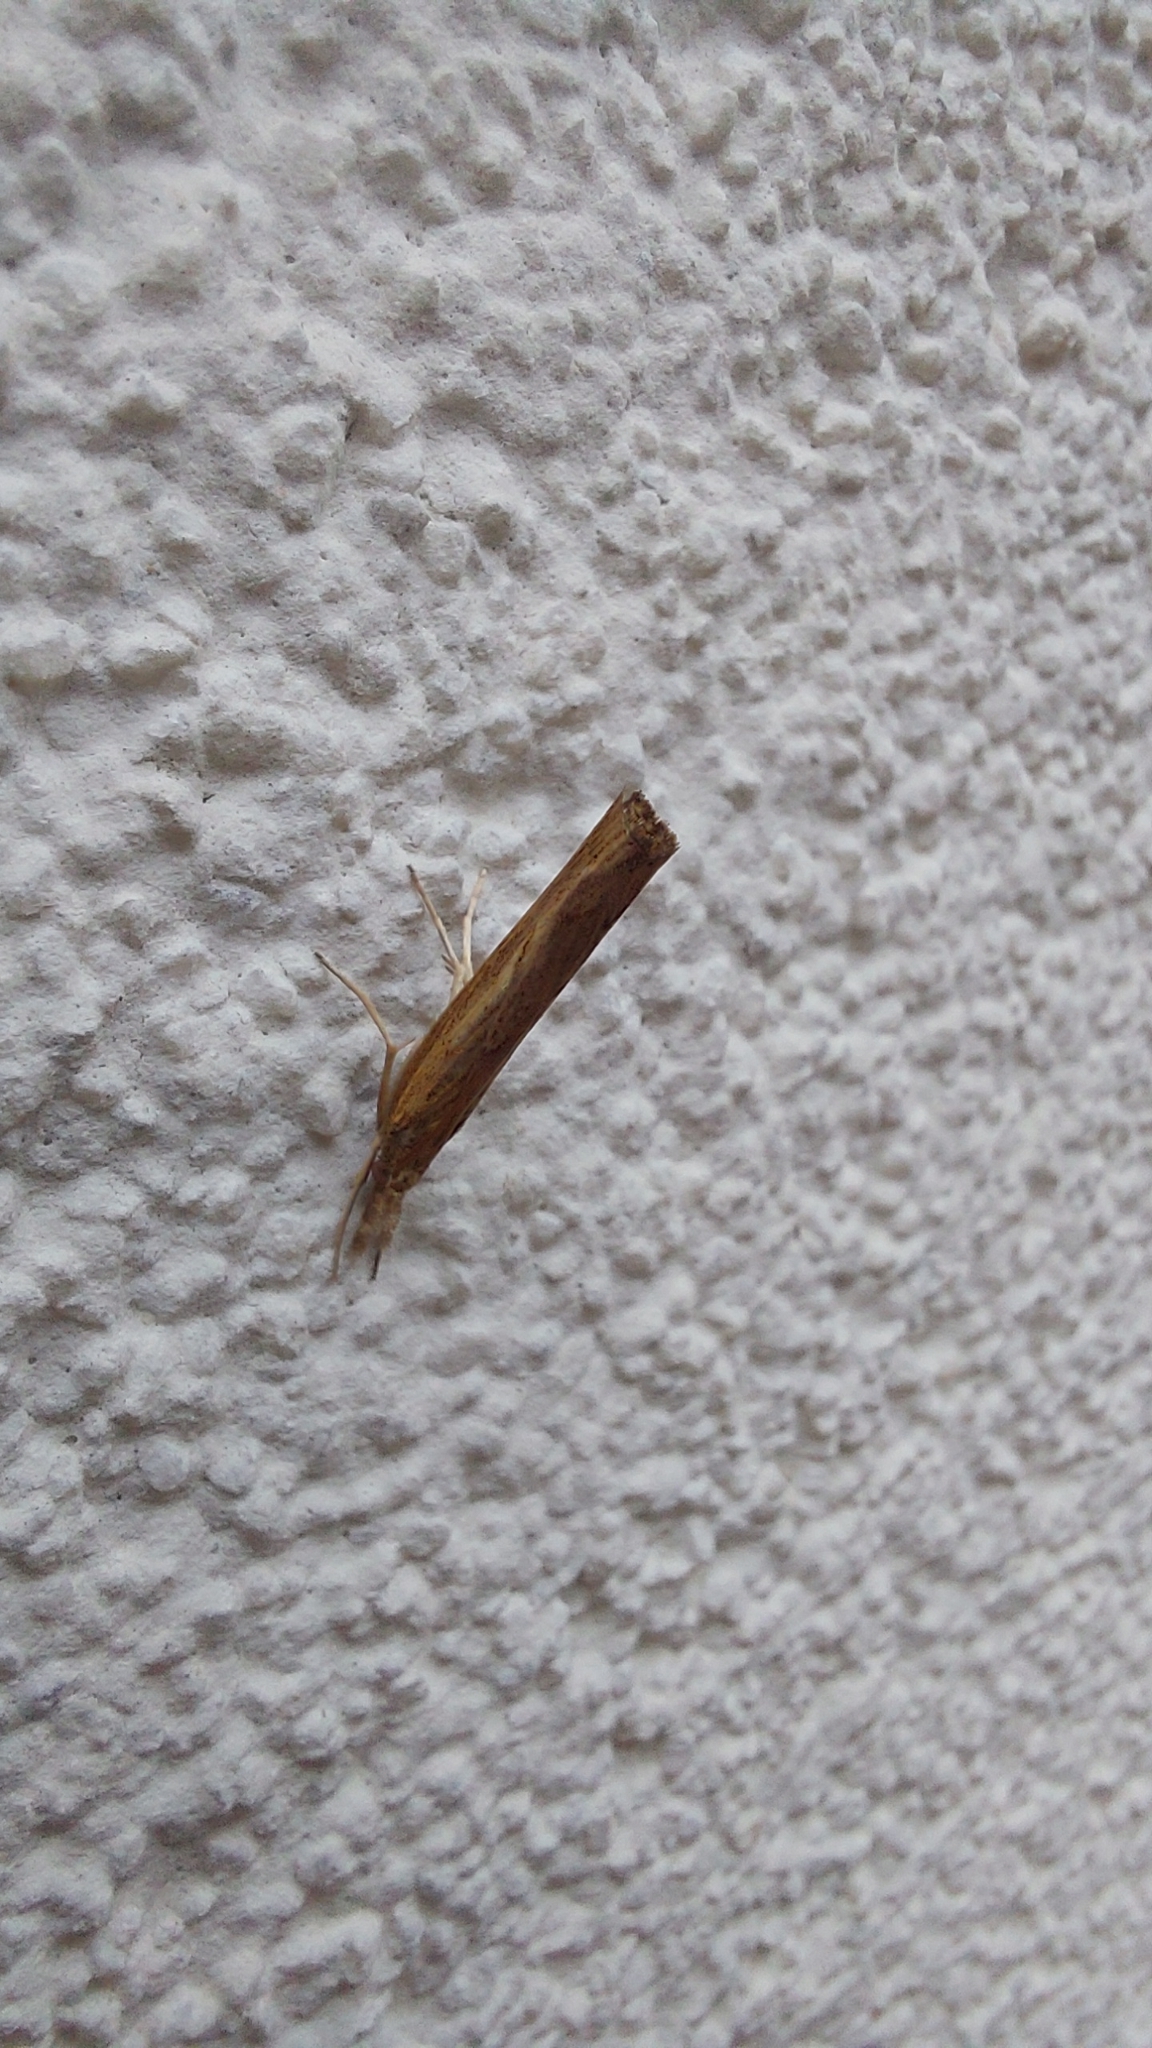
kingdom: Animalia
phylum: Arthropoda
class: Insecta
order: Lepidoptera
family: Crambidae
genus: Pediasia
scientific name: Pediasia contaminella
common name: Waste grass-veneer
